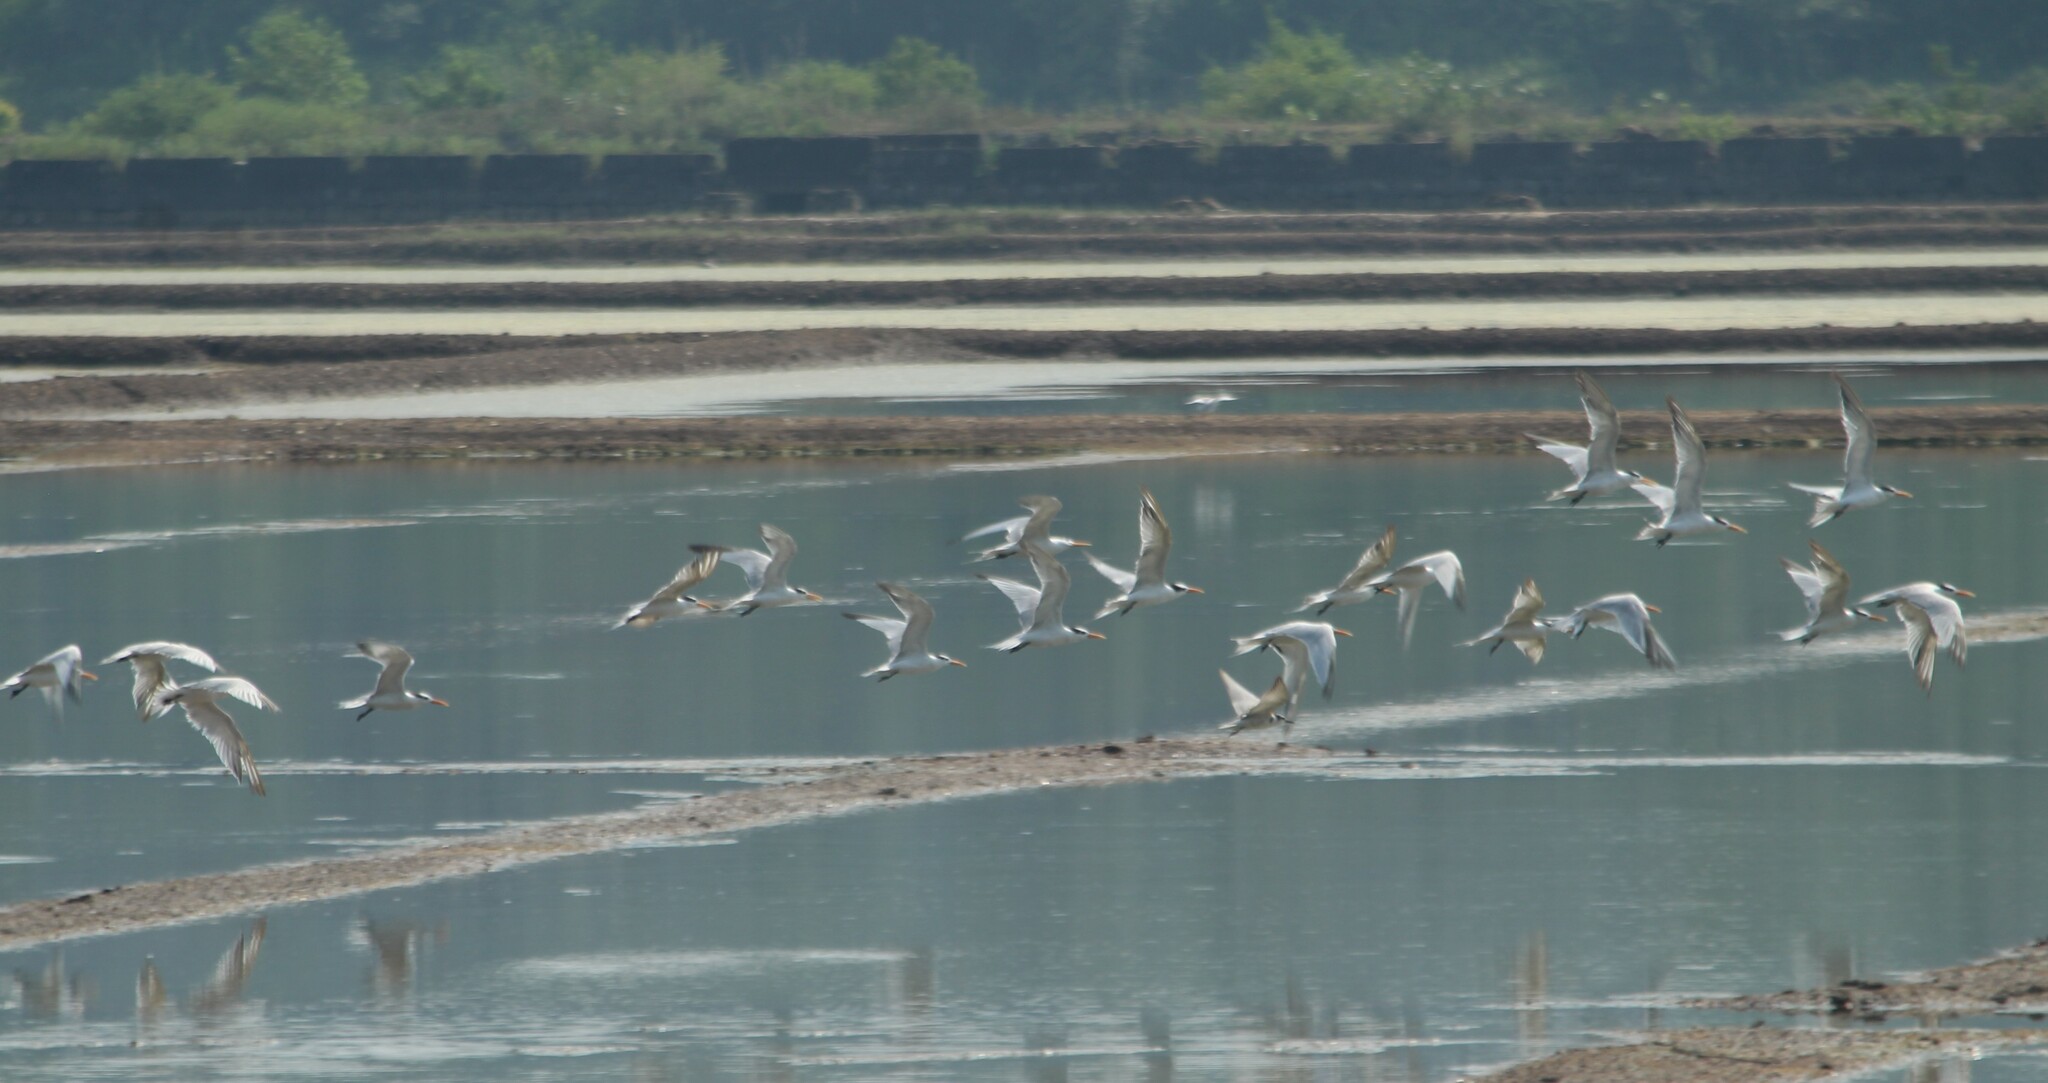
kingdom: Animalia
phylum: Chordata
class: Aves
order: Charadriiformes
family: Laridae
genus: Thalasseus
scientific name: Thalasseus bengalensis
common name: Lesser crested tern
